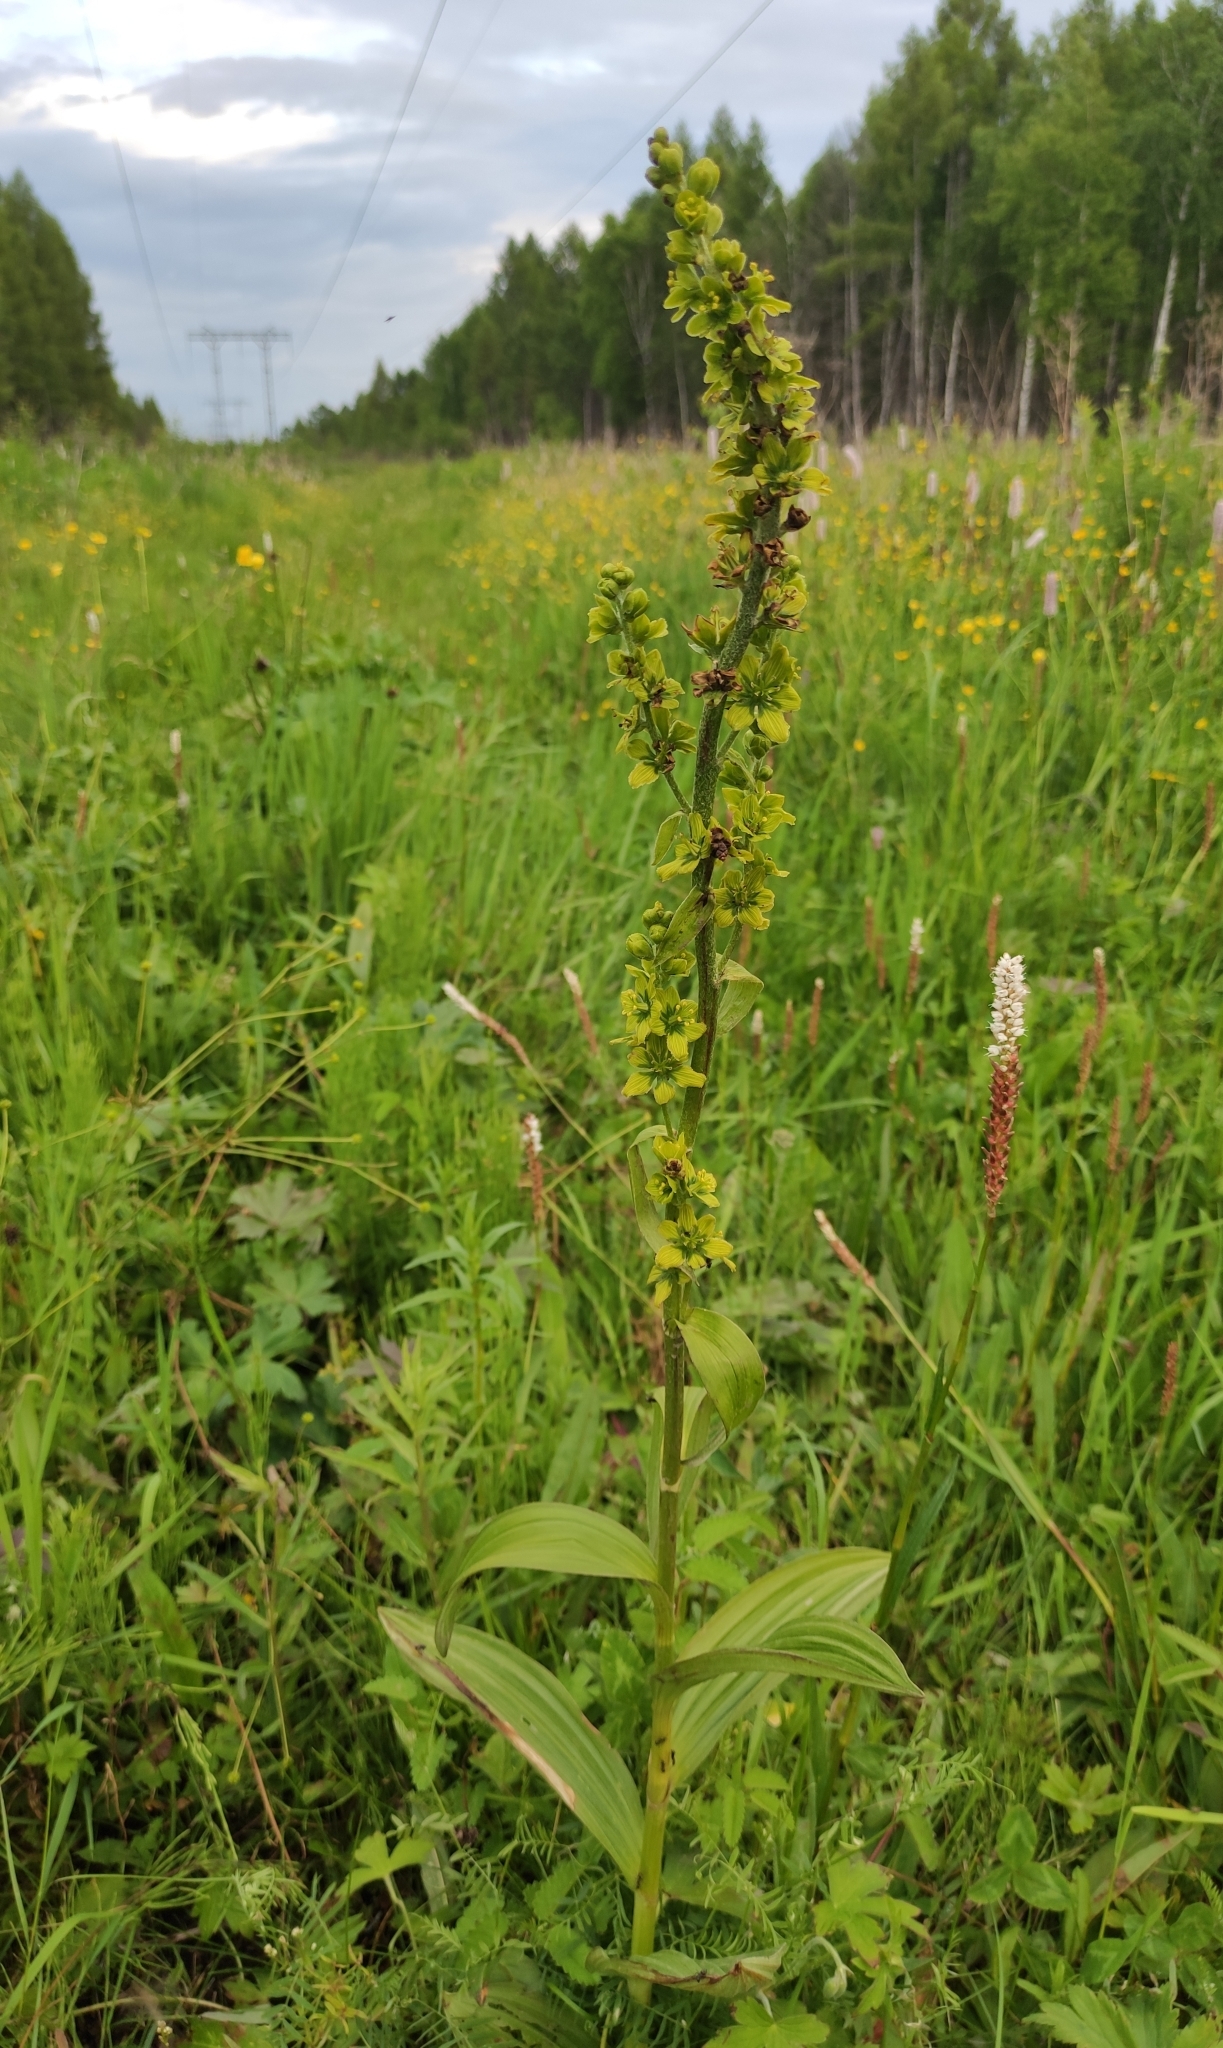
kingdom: Plantae
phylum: Tracheophyta
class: Liliopsida
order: Liliales
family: Melanthiaceae
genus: Veratrum
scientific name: Veratrum lobelianum
